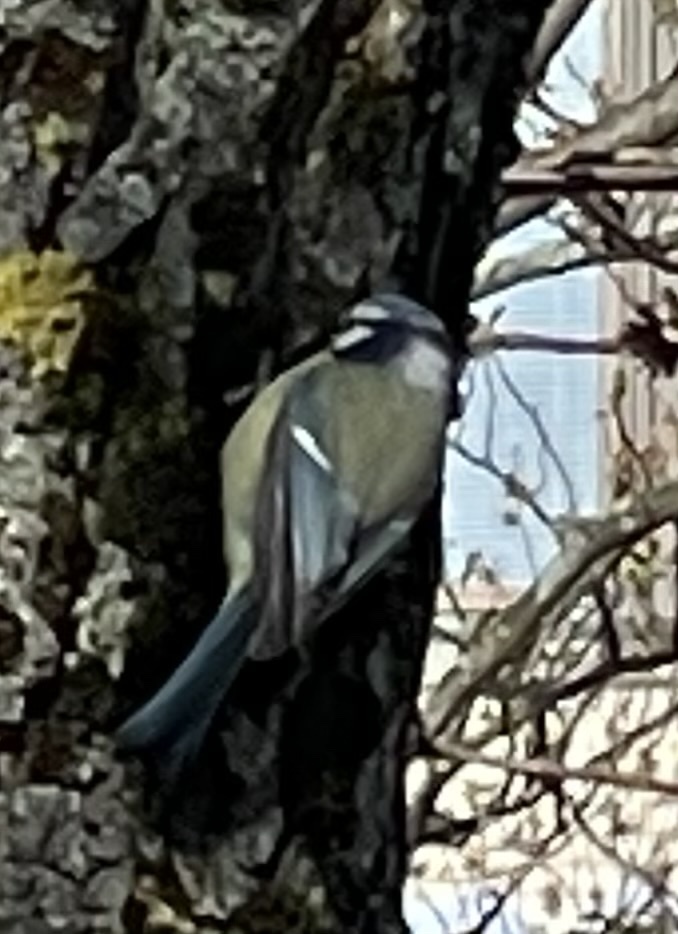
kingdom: Animalia
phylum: Chordata
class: Aves
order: Passeriformes
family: Paridae
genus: Cyanistes
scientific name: Cyanistes caeruleus
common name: Eurasian blue tit
